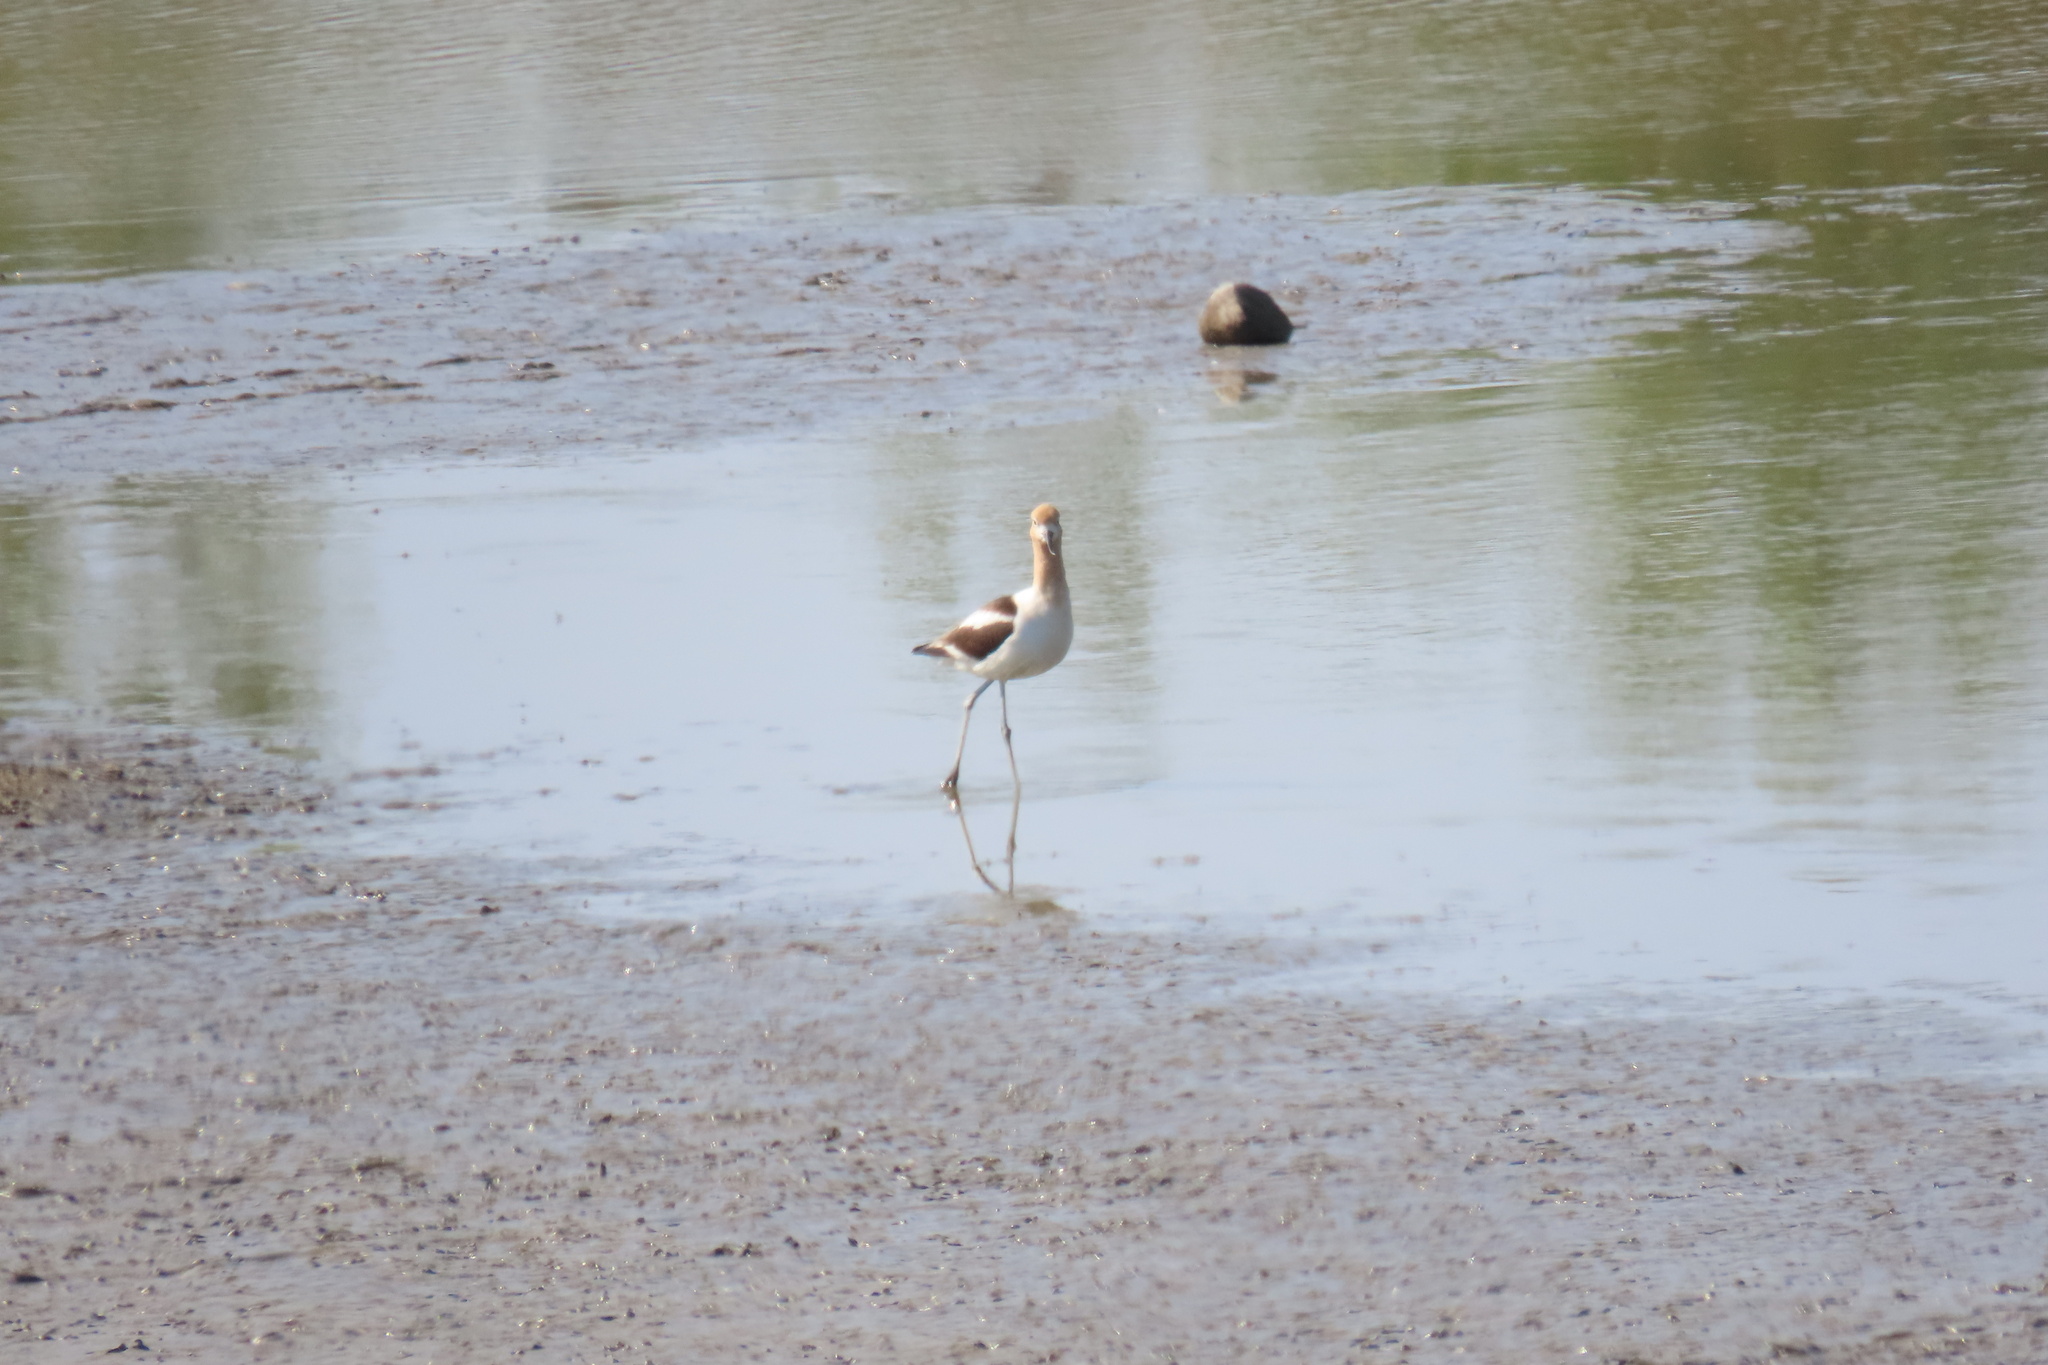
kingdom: Animalia
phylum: Chordata
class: Aves
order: Charadriiformes
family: Recurvirostridae
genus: Recurvirostra
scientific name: Recurvirostra americana
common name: American avocet
